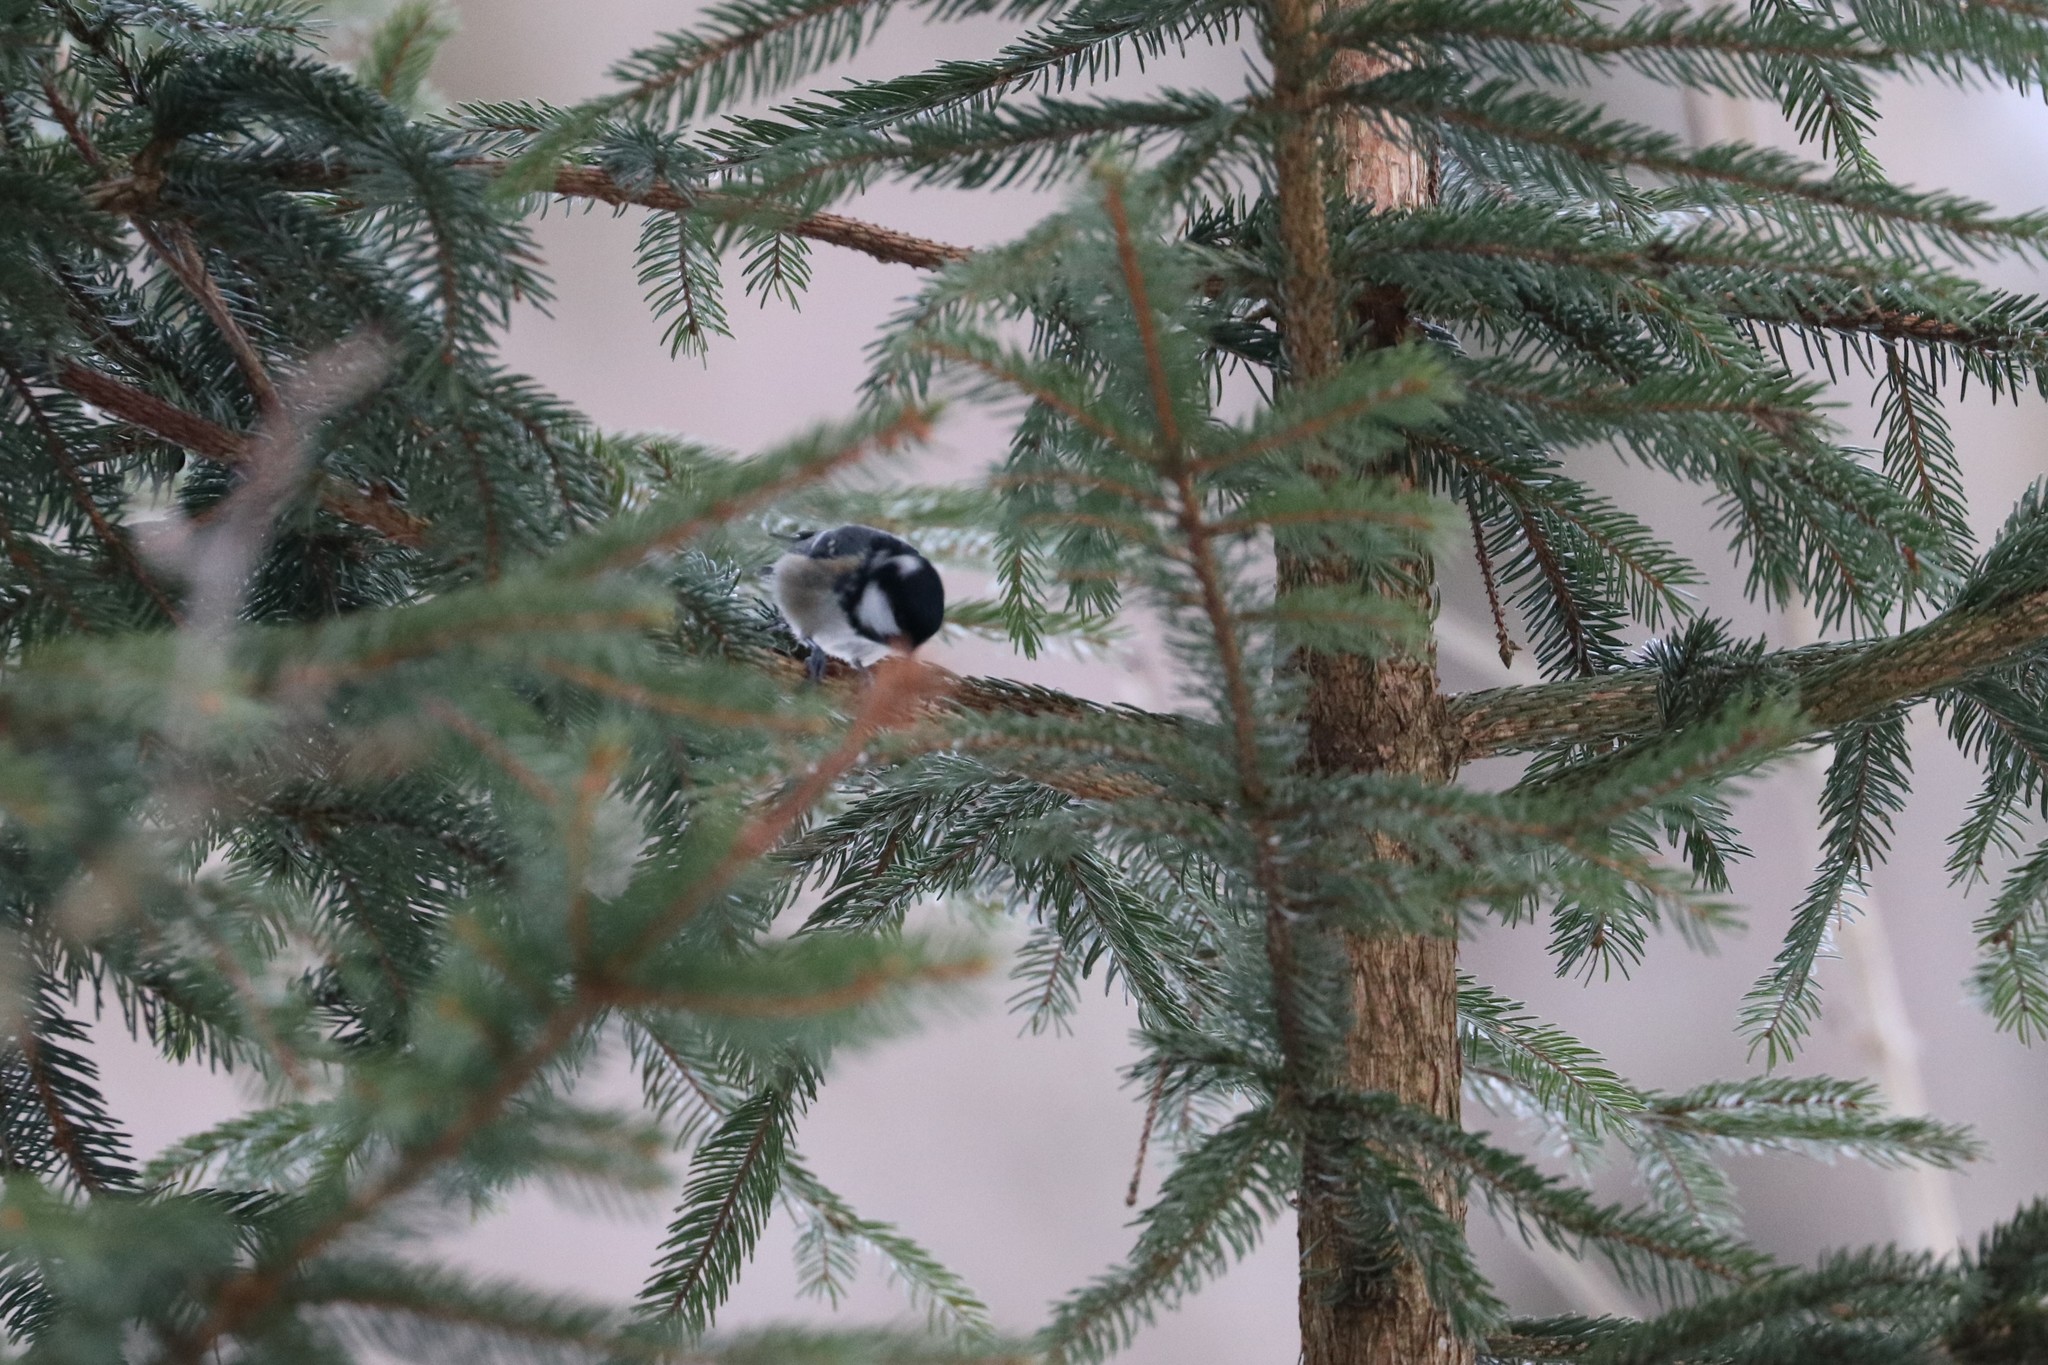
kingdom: Animalia
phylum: Chordata
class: Aves
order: Passeriformes
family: Paridae
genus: Periparus
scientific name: Periparus ater
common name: Coal tit
